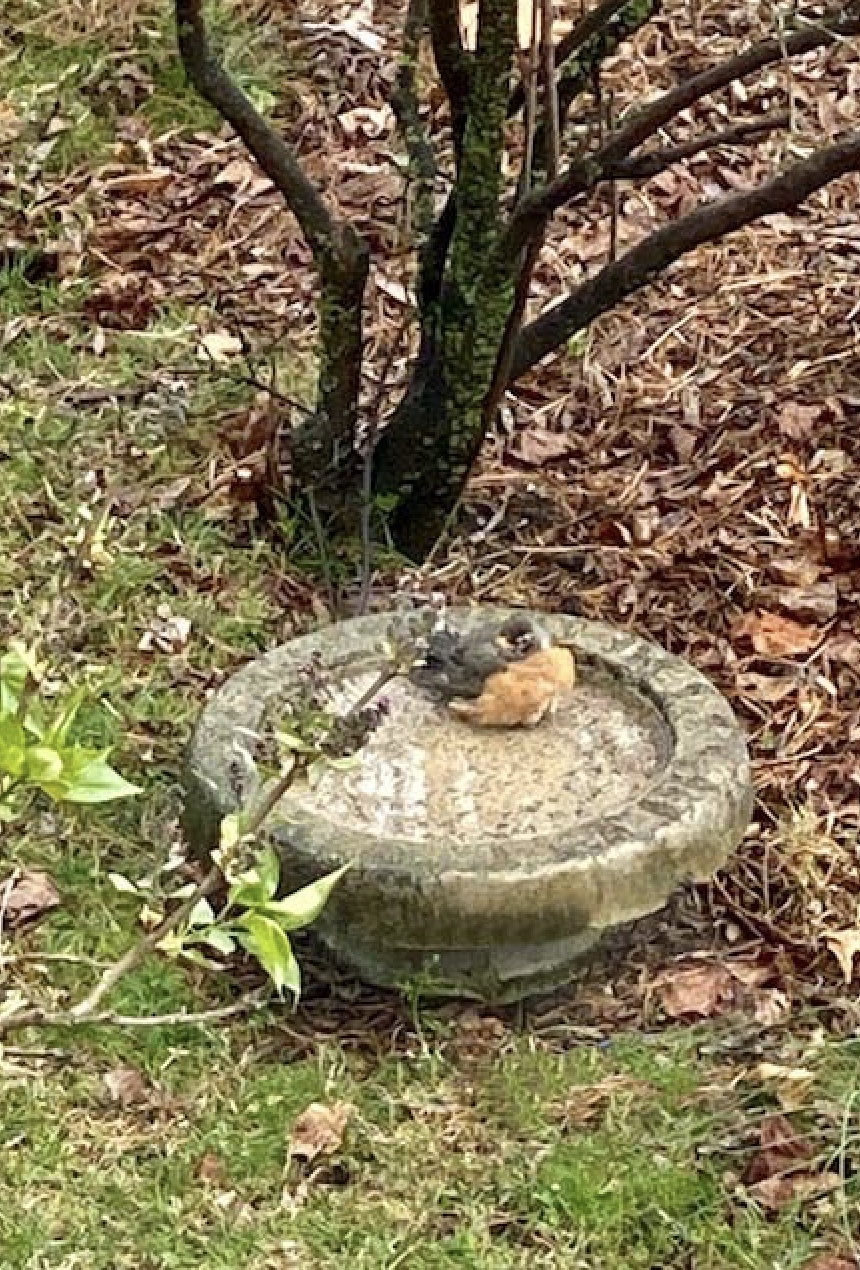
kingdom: Animalia
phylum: Chordata
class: Aves
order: Passeriformes
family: Turdidae
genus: Turdus
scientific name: Turdus migratorius
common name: American robin
